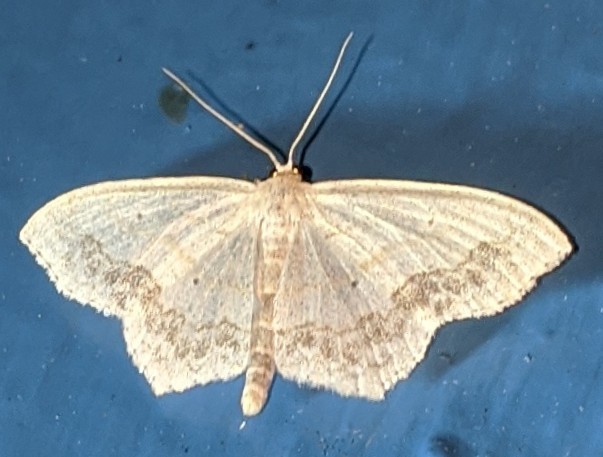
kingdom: Animalia
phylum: Arthropoda
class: Insecta
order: Lepidoptera
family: Geometridae
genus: Scopula
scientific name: Scopula limboundata
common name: Large lace border
